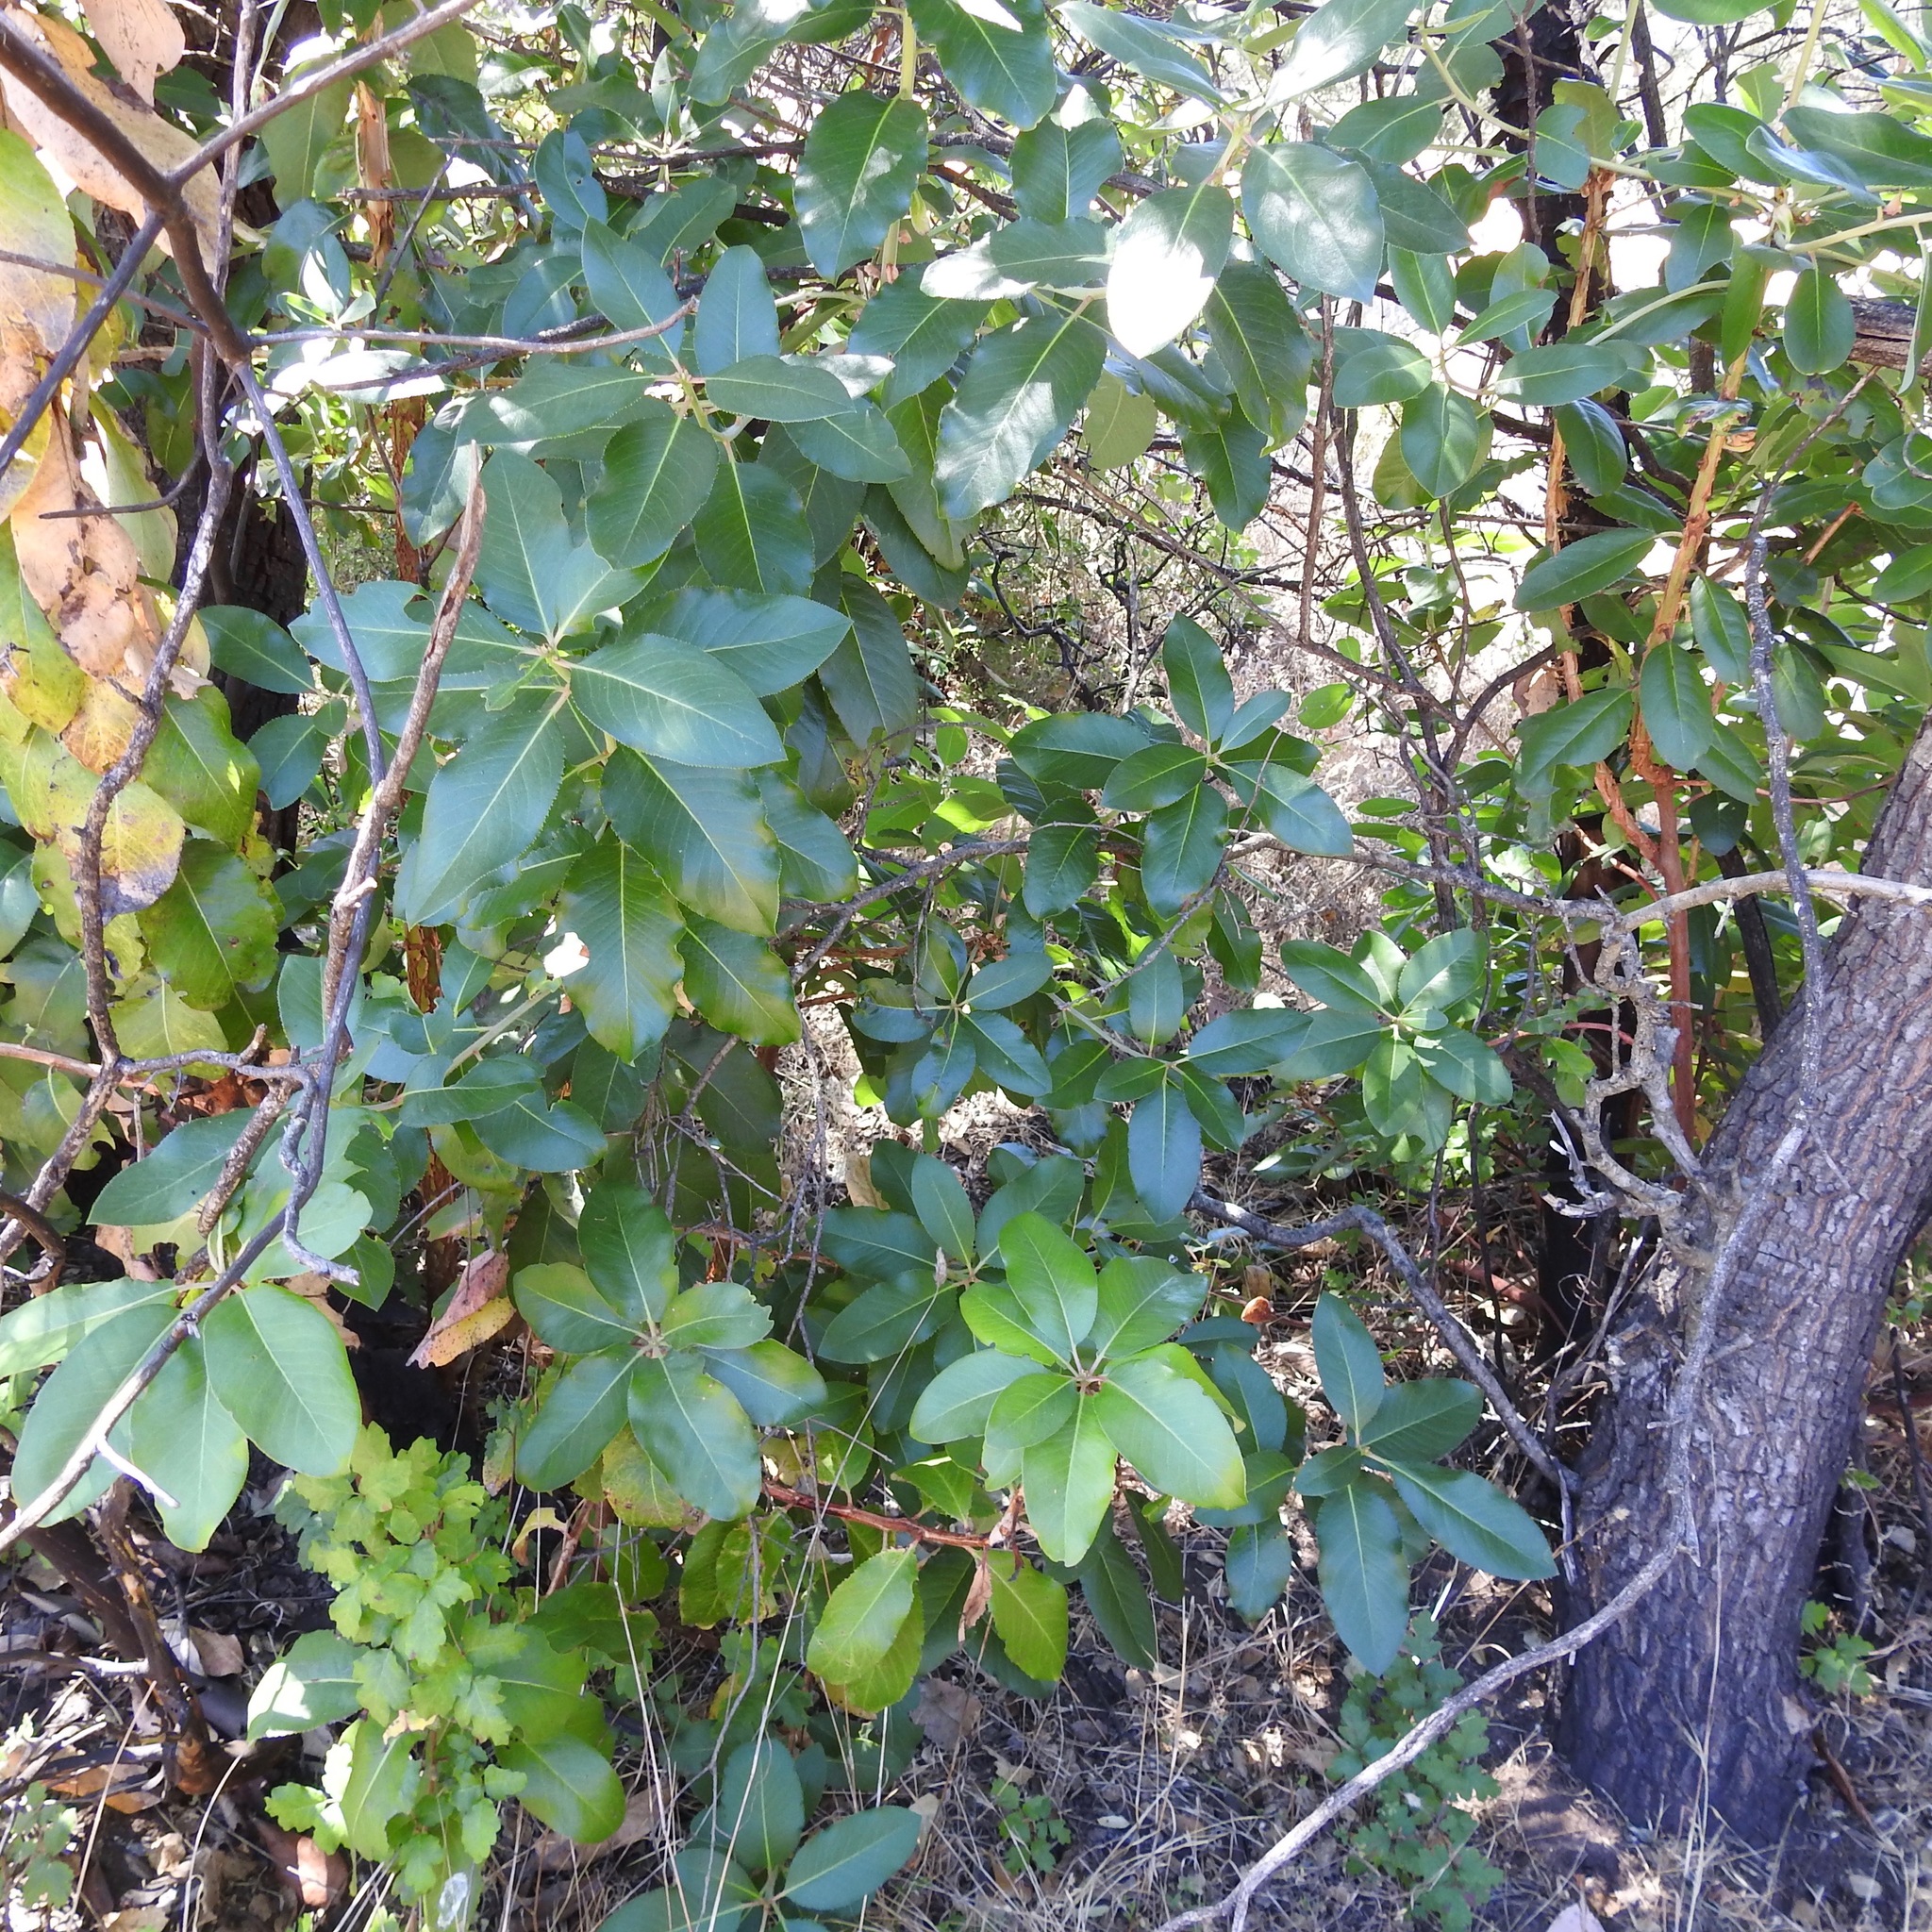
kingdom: Plantae
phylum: Tracheophyta
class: Magnoliopsida
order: Ericales
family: Ericaceae
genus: Arbutus
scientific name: Arbutus menziesii
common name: Pacific madrone
